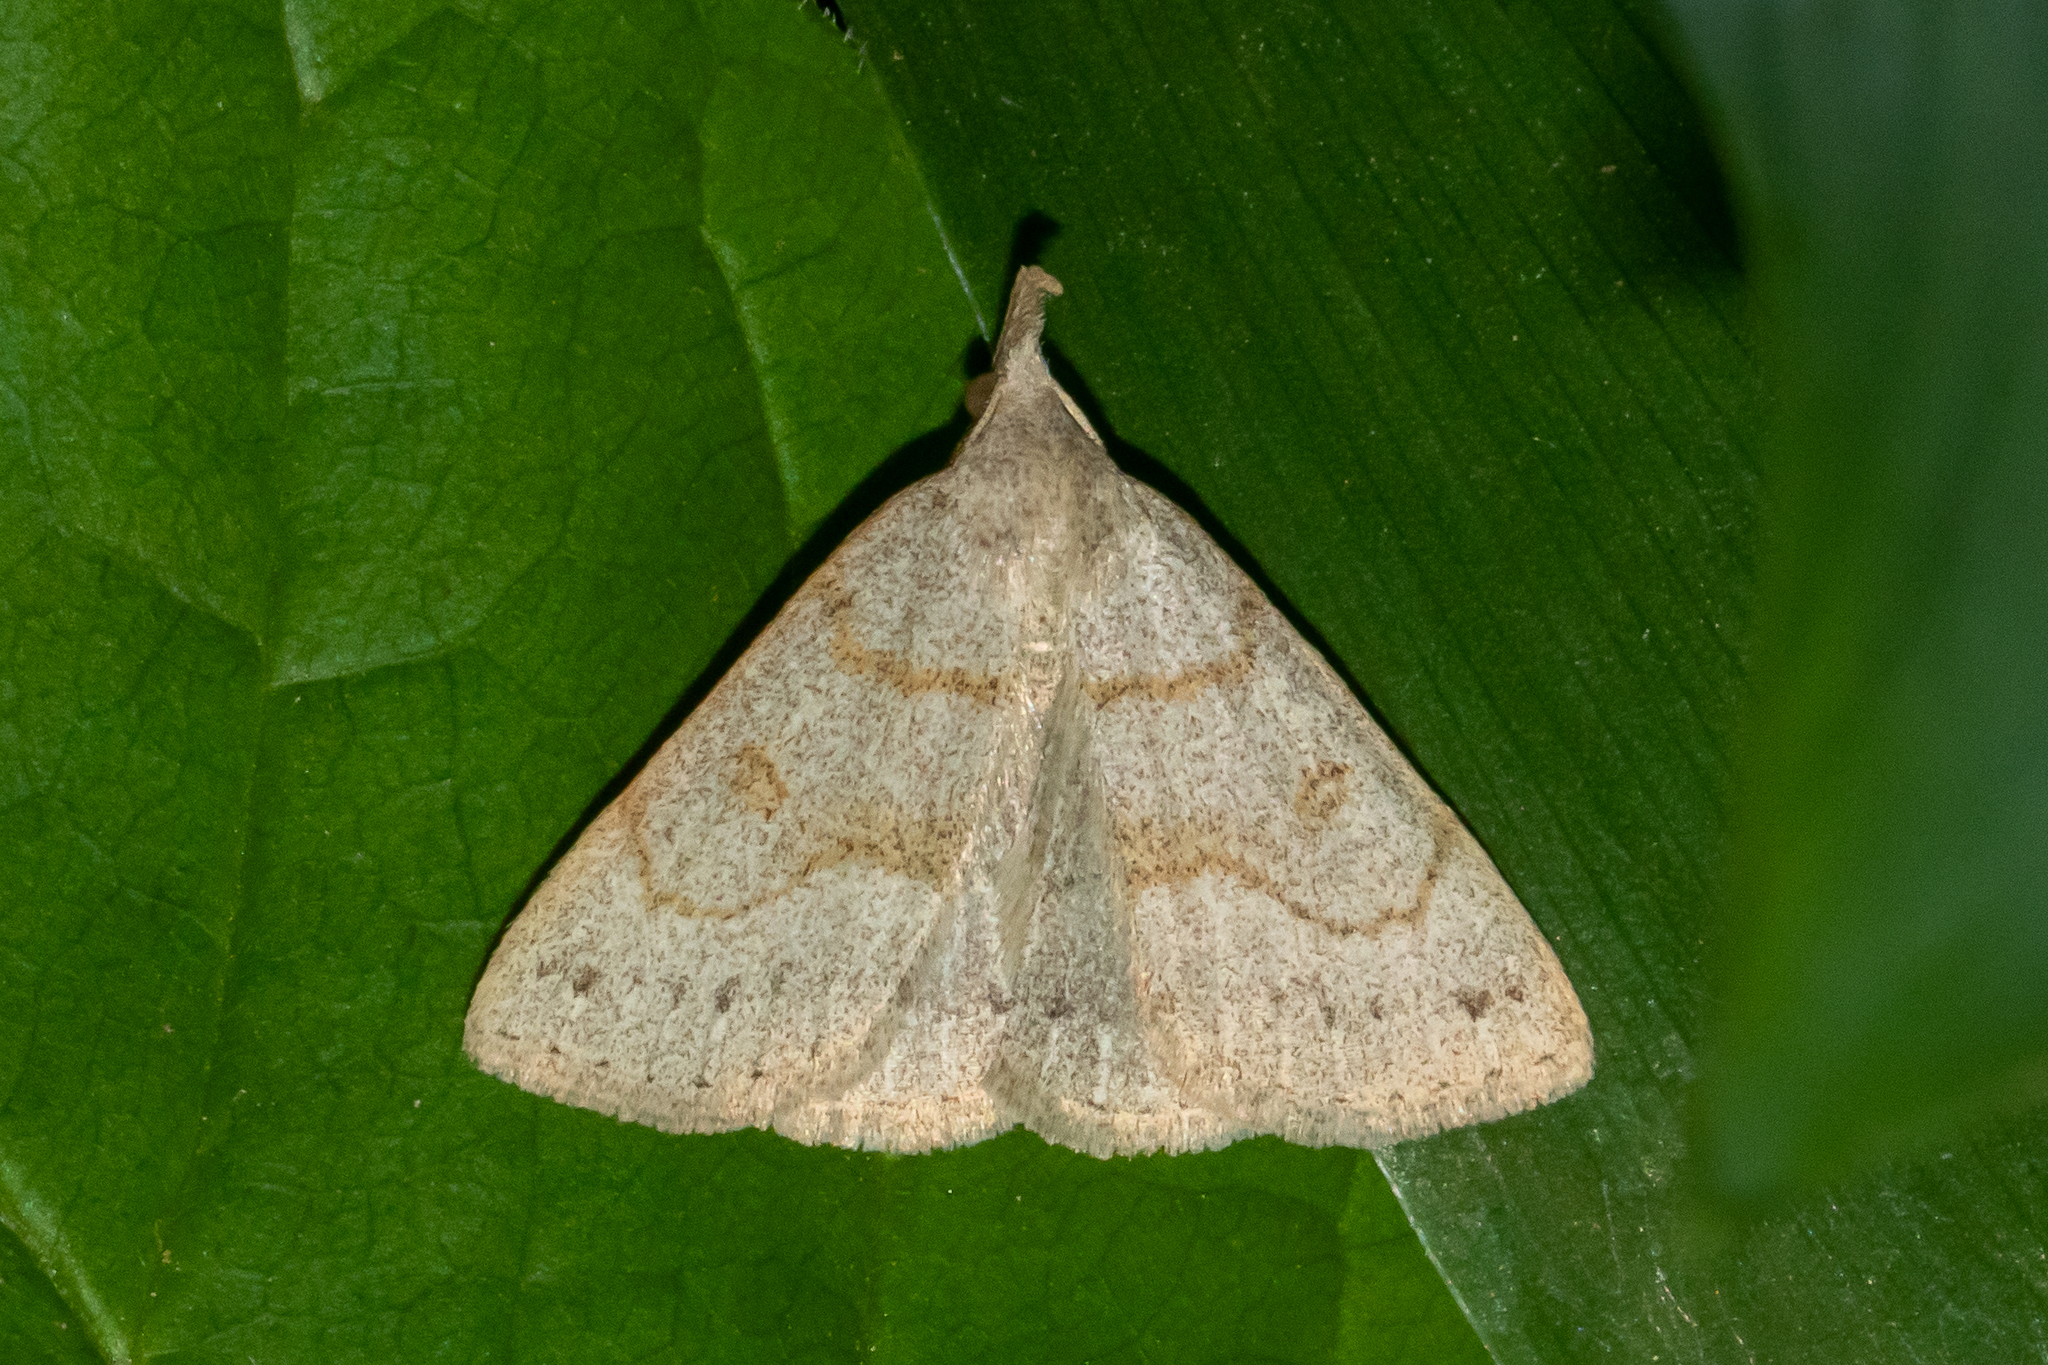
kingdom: Animalia
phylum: Arthropoda
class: Insecta
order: Lepidoptera
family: Erebidae
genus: Macrochilo
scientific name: Macrochilo morbidalis
